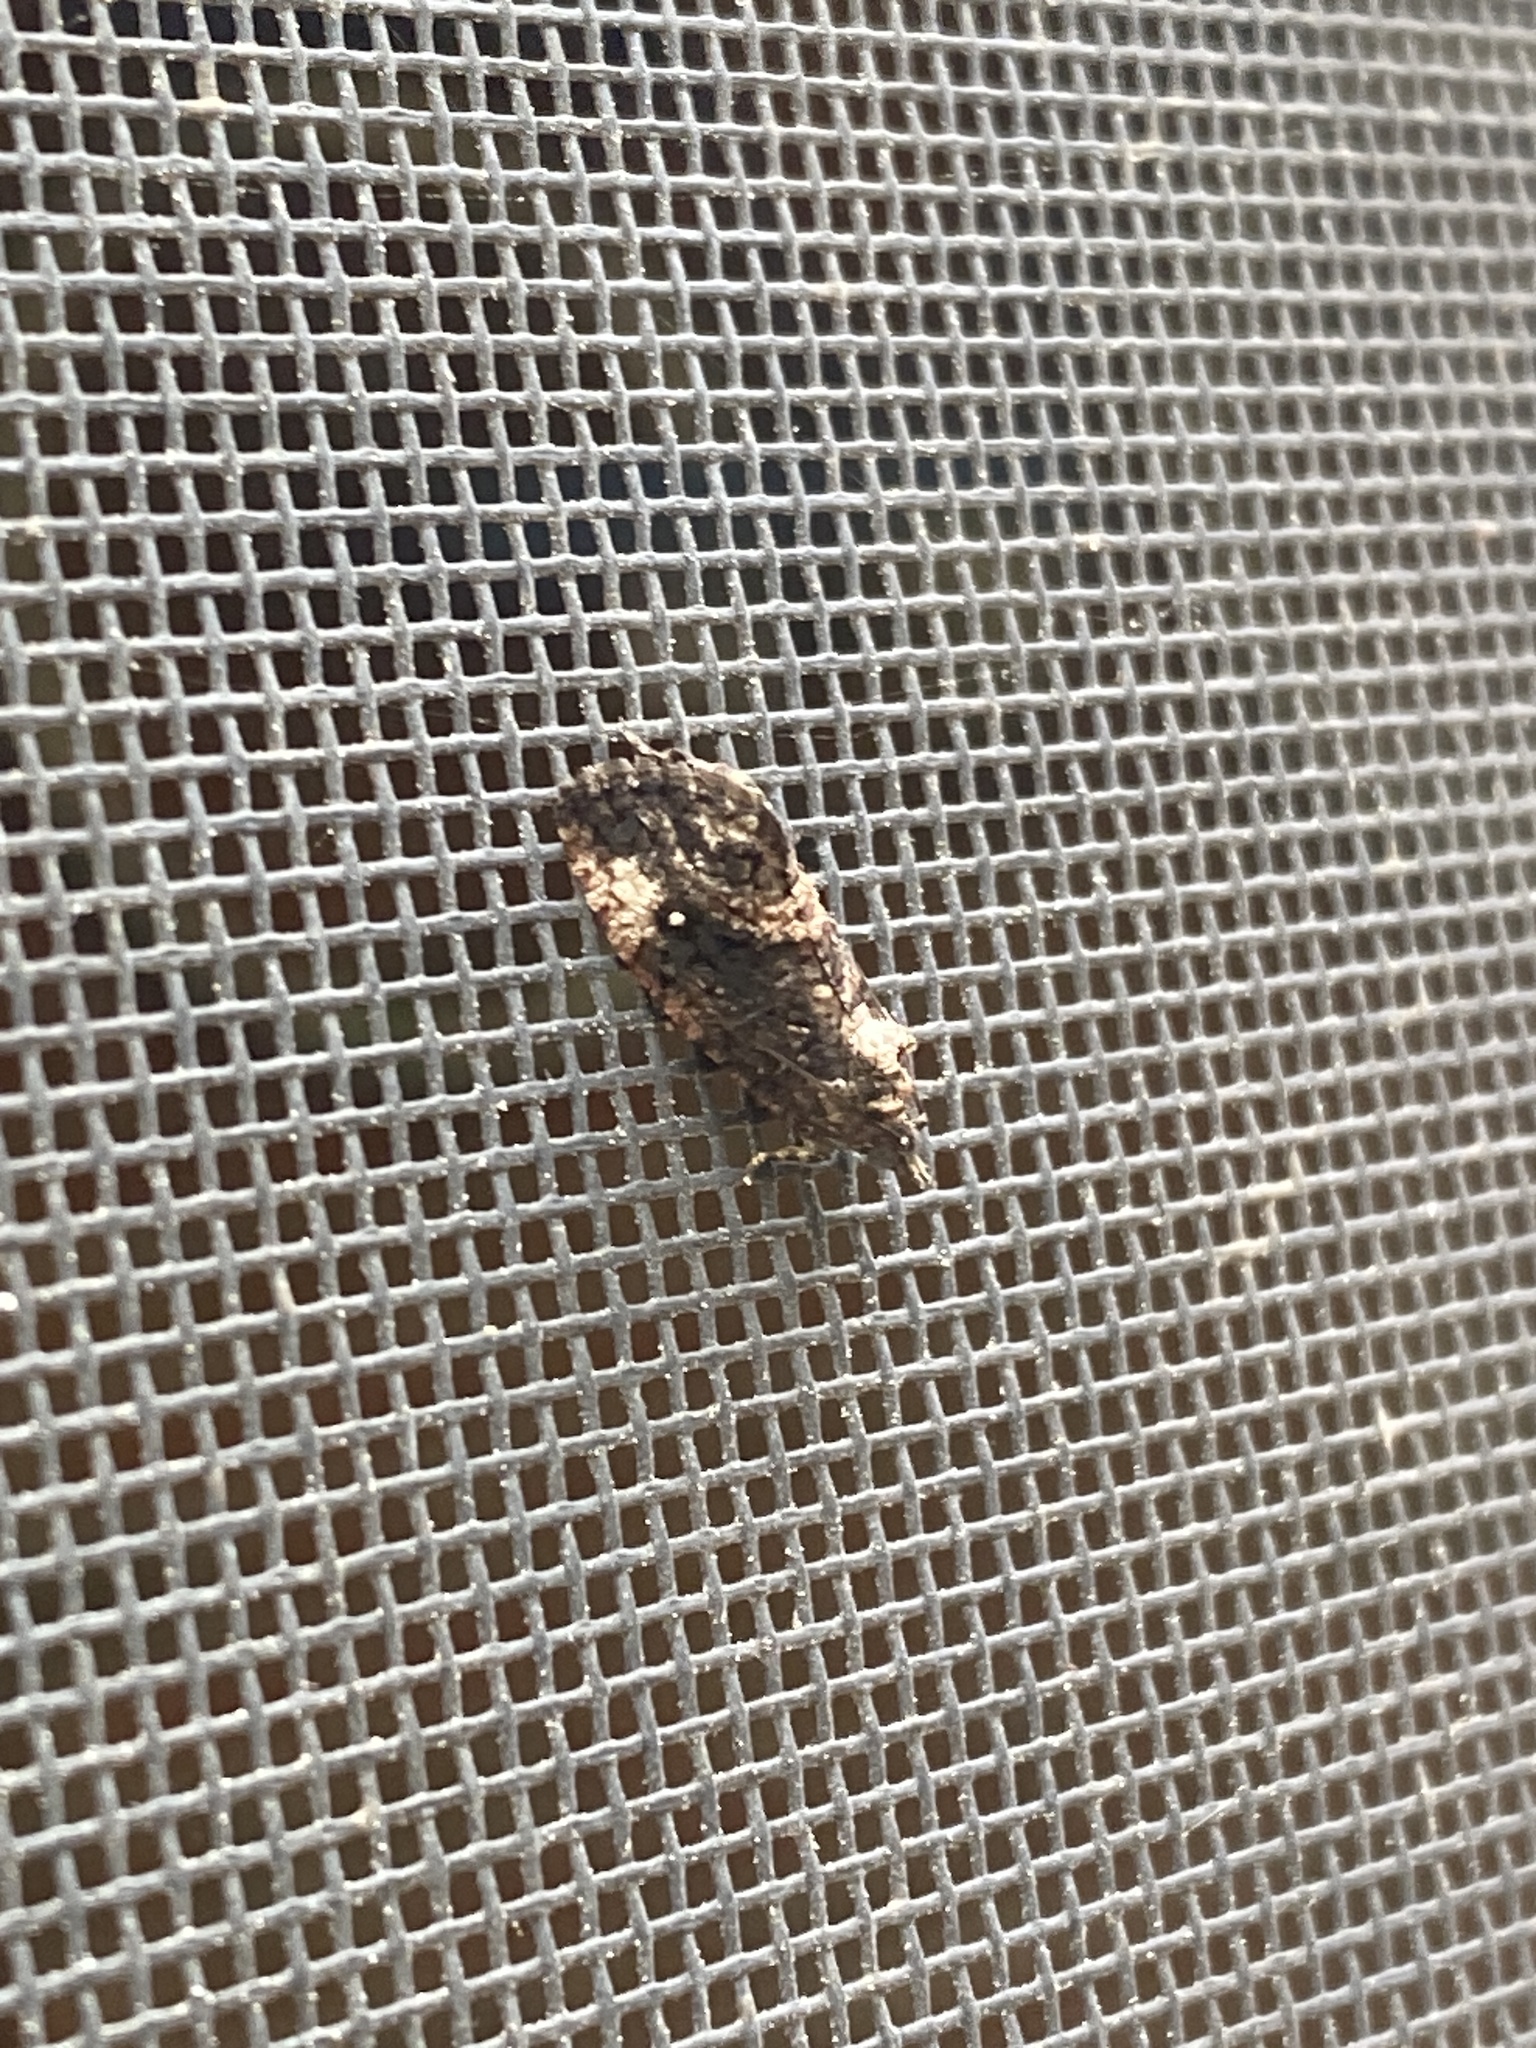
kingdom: Animalia
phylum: Arthropoda
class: Insecta
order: Lepidoptera
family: Tortricidae
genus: Gymnandrosoma
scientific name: Gymnandrosoma punctidiscanum
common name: Dotted ecdytolopha moth
